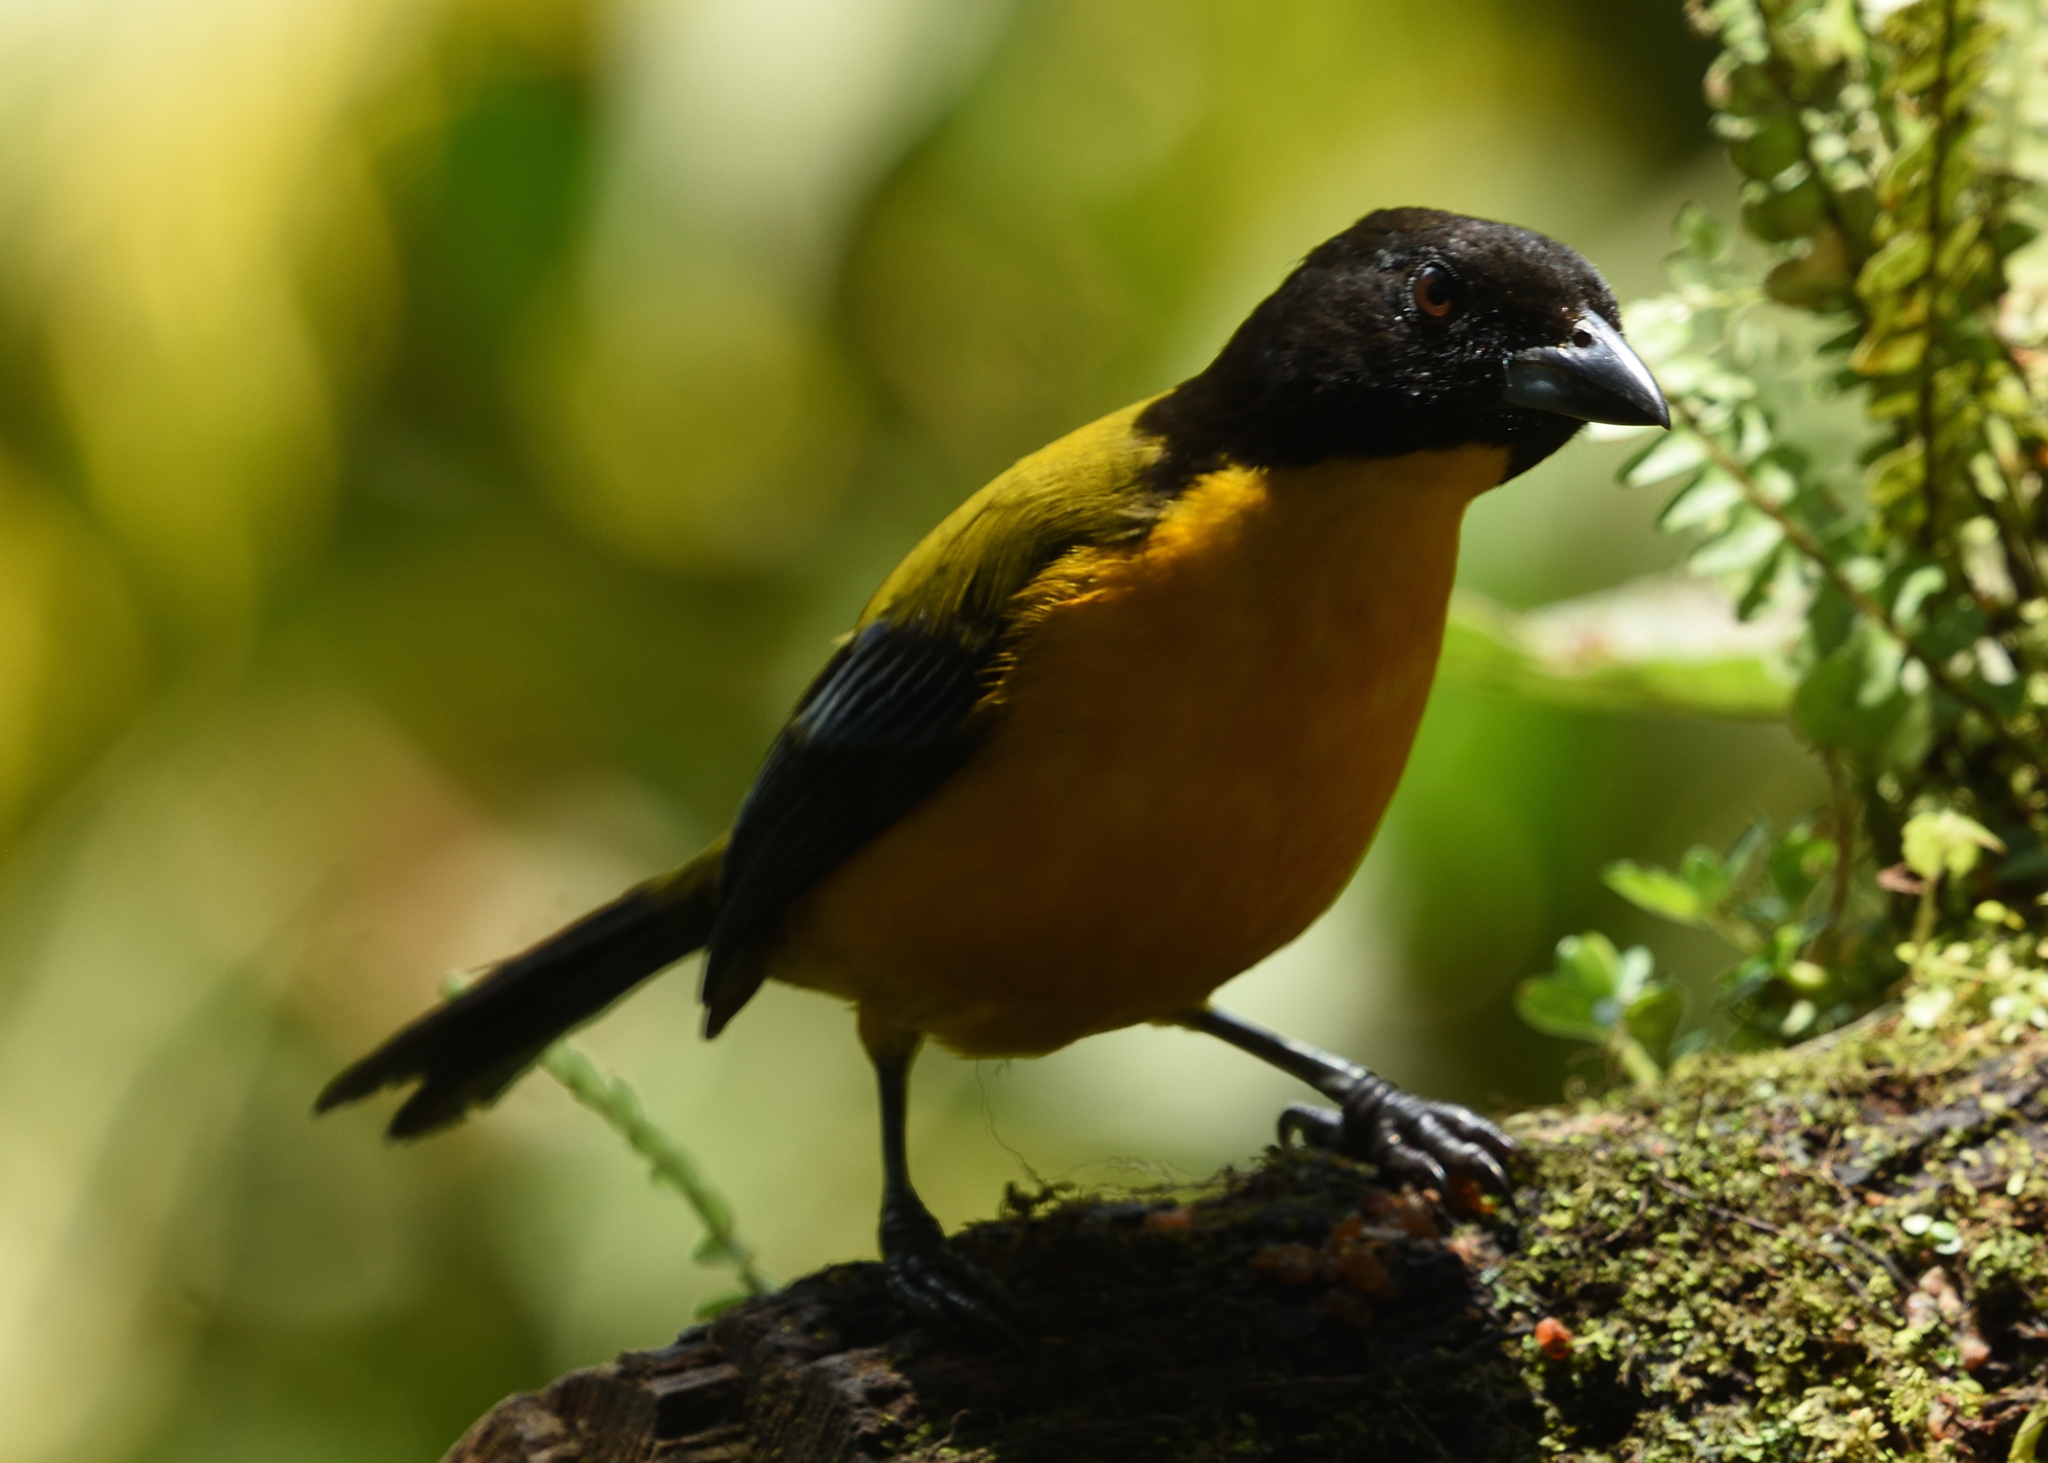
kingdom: Animalia
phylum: Chordata
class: Aves
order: Passeriformes
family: Thraupidae
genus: Anisognathus
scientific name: Anisognathus notabilis
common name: Black-chinned mountain tanager
